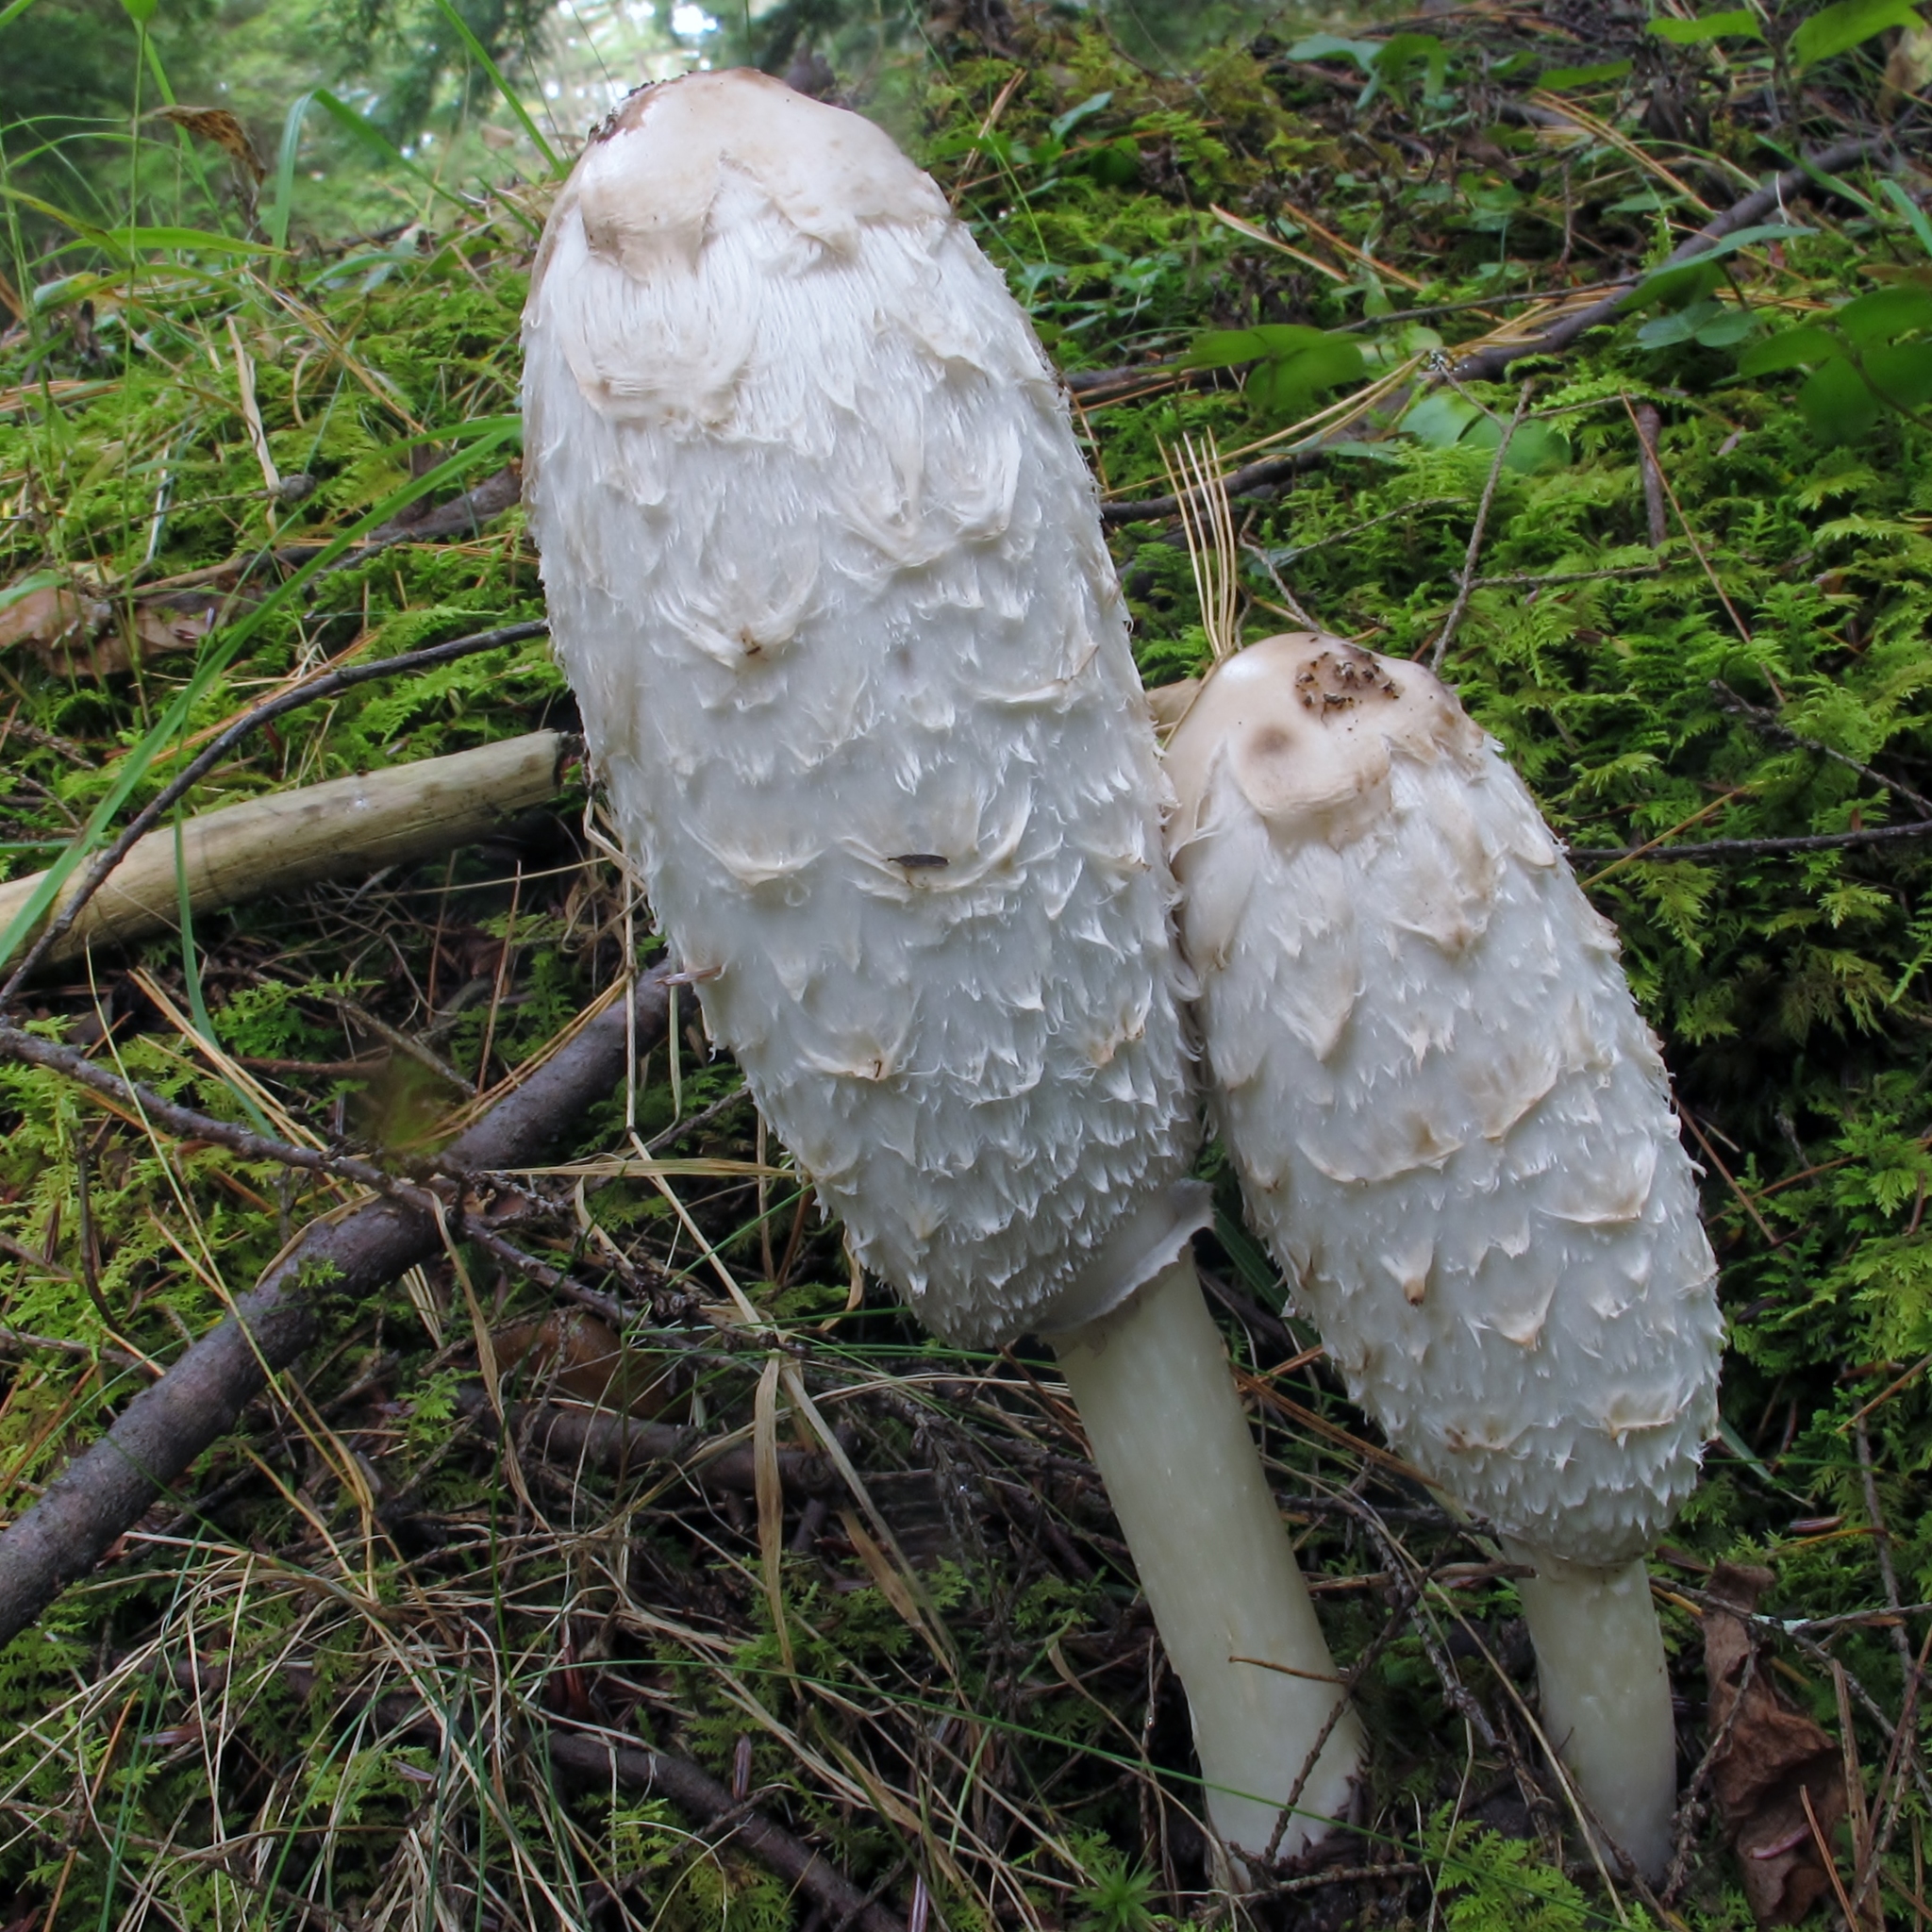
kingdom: Fungi
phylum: Basidiomycota
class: Agaricomycetes
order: Agaricales
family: Agaricaceae
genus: Coprinus
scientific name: Coprinus comatus
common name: Lawyer's wig
